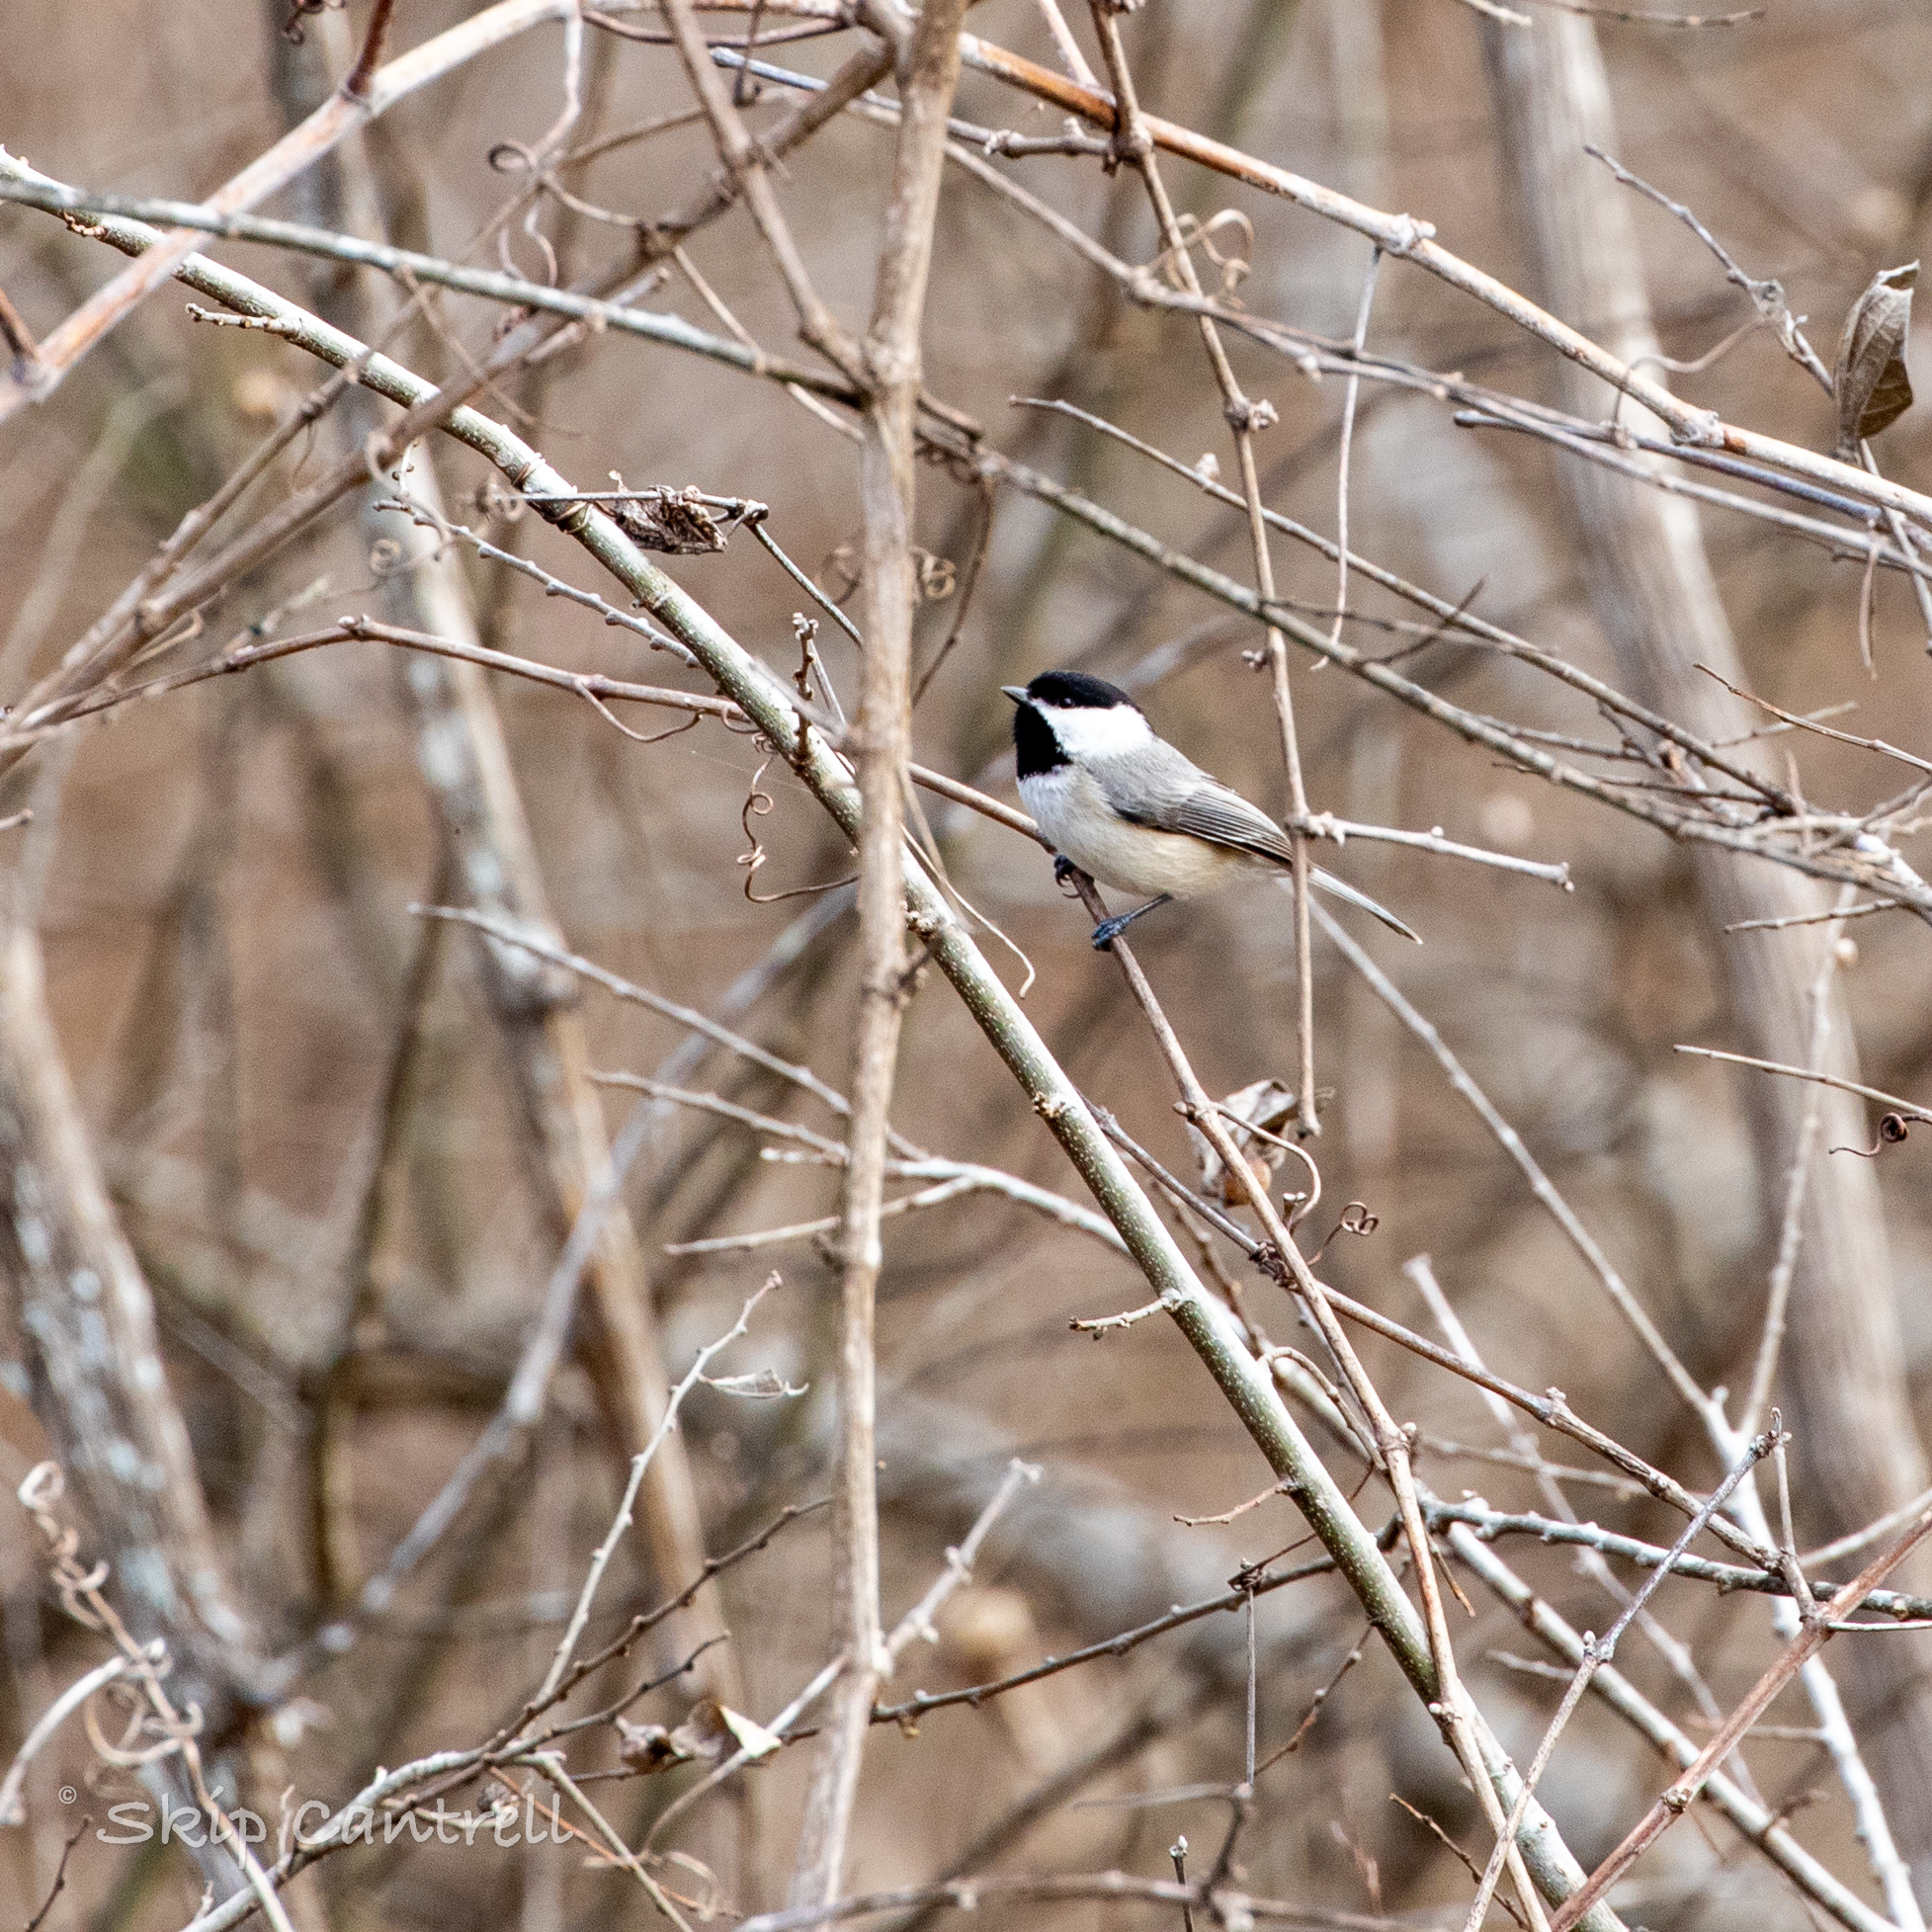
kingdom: Animalia
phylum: Chordata
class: Aves
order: Passeriformes
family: Paridae
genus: Poecile
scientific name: Poecile carolinensis
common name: Carolina chickadee
